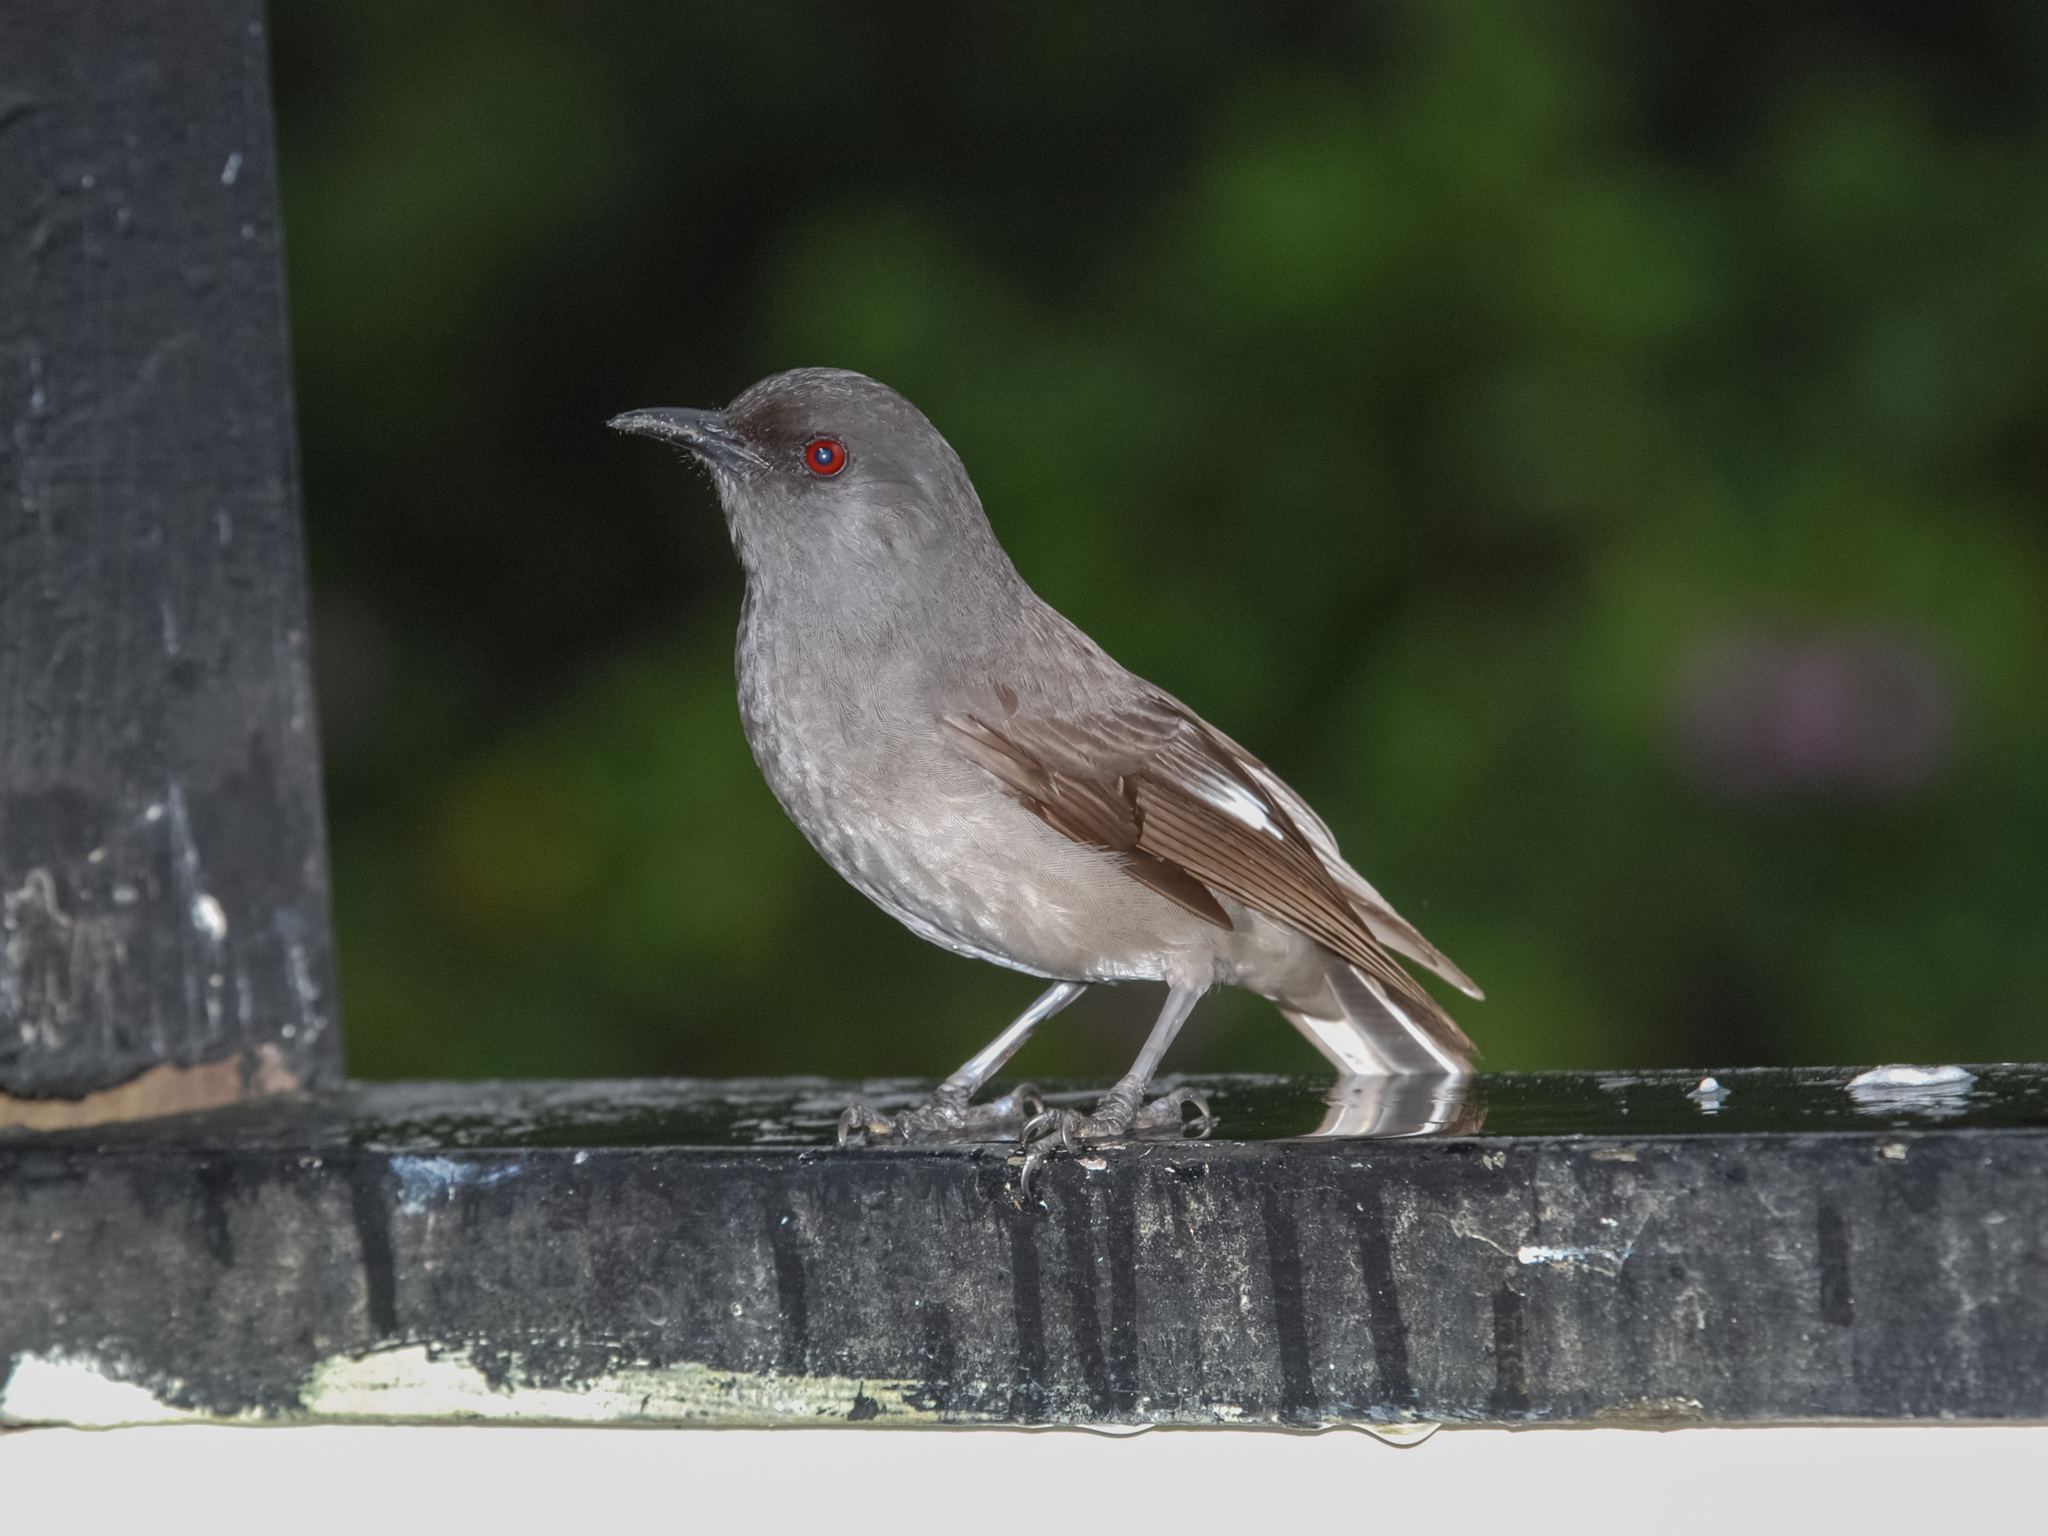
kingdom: Animalia
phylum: Chordata
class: Aves
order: Passeriformes
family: Leiothrichidae
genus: Heterophasia
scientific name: Heterophasia picaoides
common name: Long-tailed sibia
